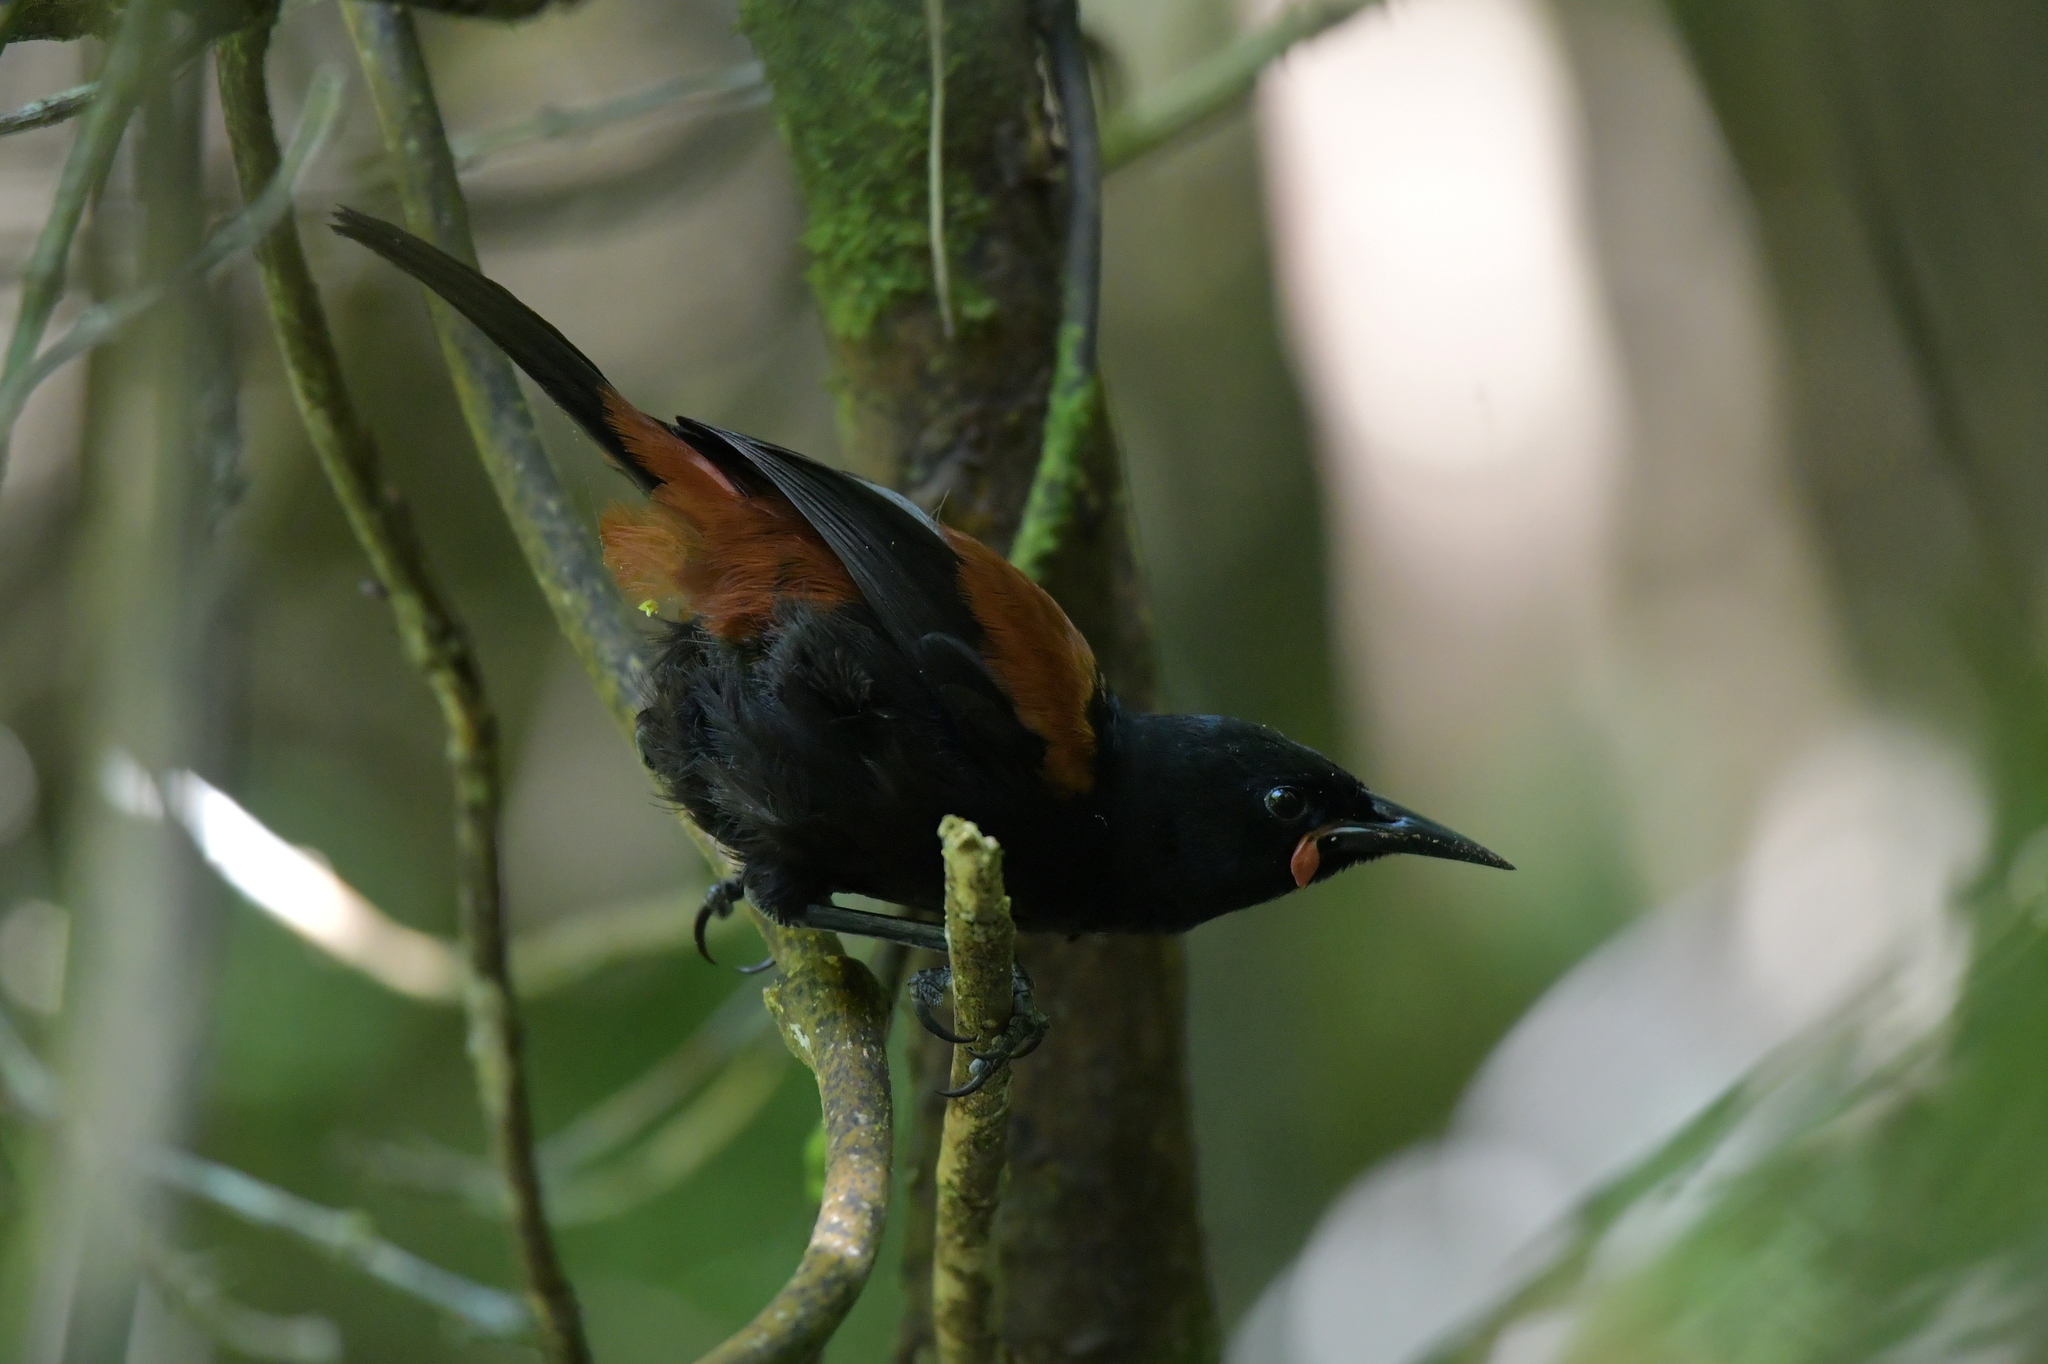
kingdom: Animalia
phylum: Chordata
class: Aves
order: Passeriformes
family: Callaeatidae
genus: Philesturnus
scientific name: Philesturnus carunculatus
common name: South island saddleback
